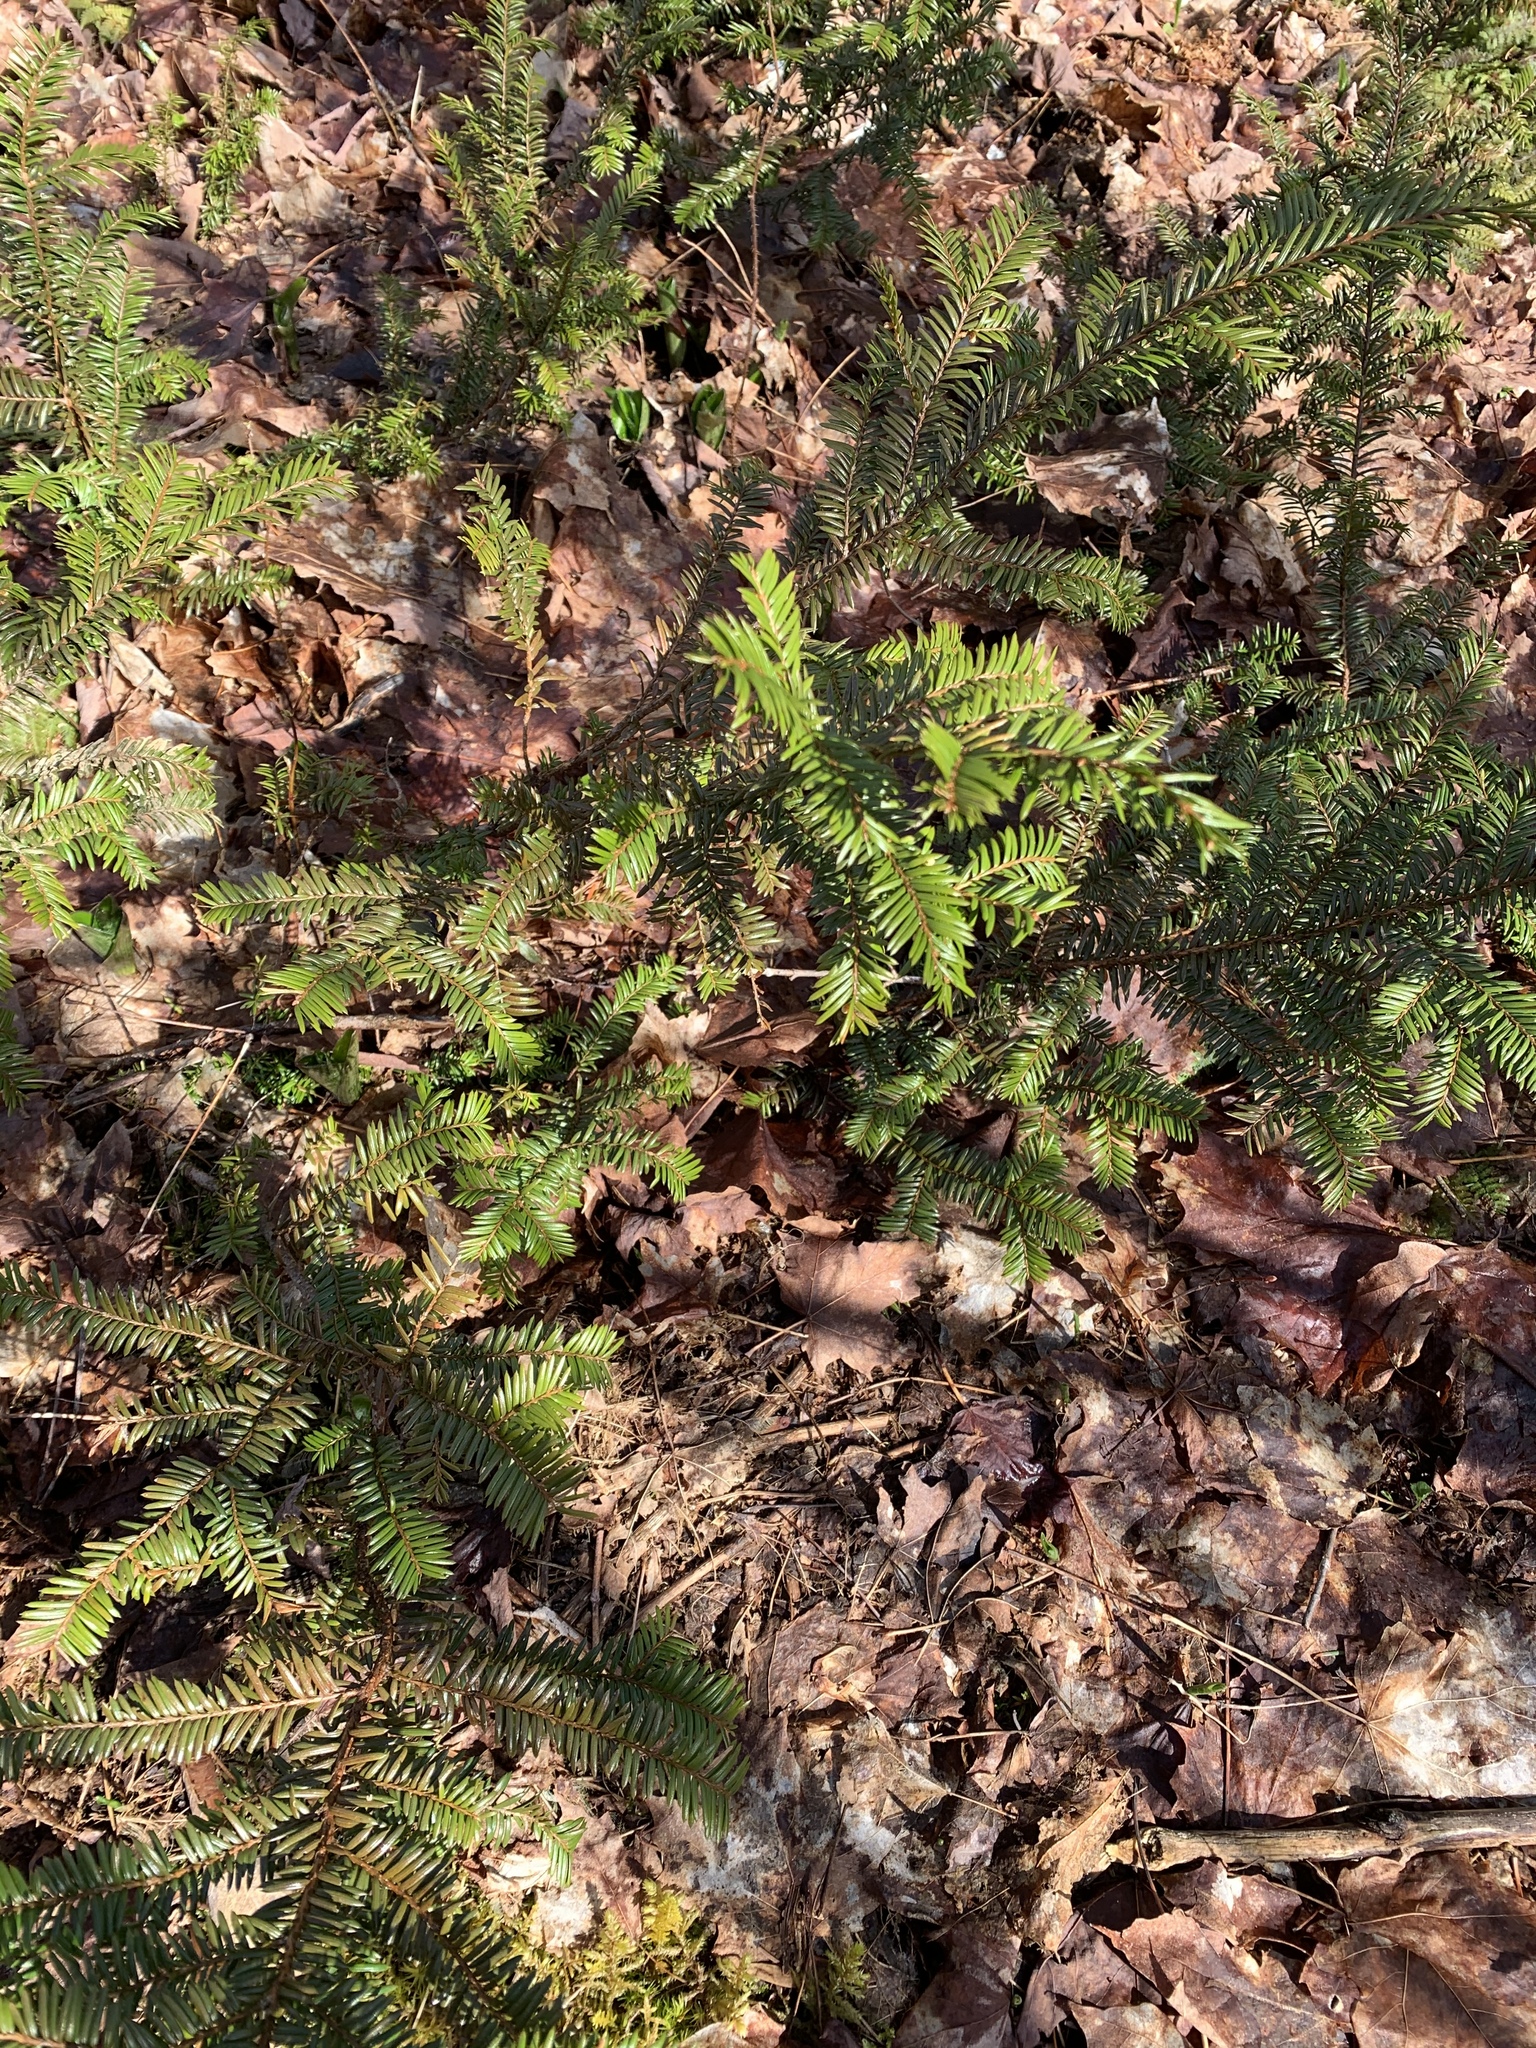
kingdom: Plantae
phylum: Tracheophyta
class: Pinopsida
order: Pinales
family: Taxaceae
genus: Taxus
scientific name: Taxus canadensis
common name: American yew
